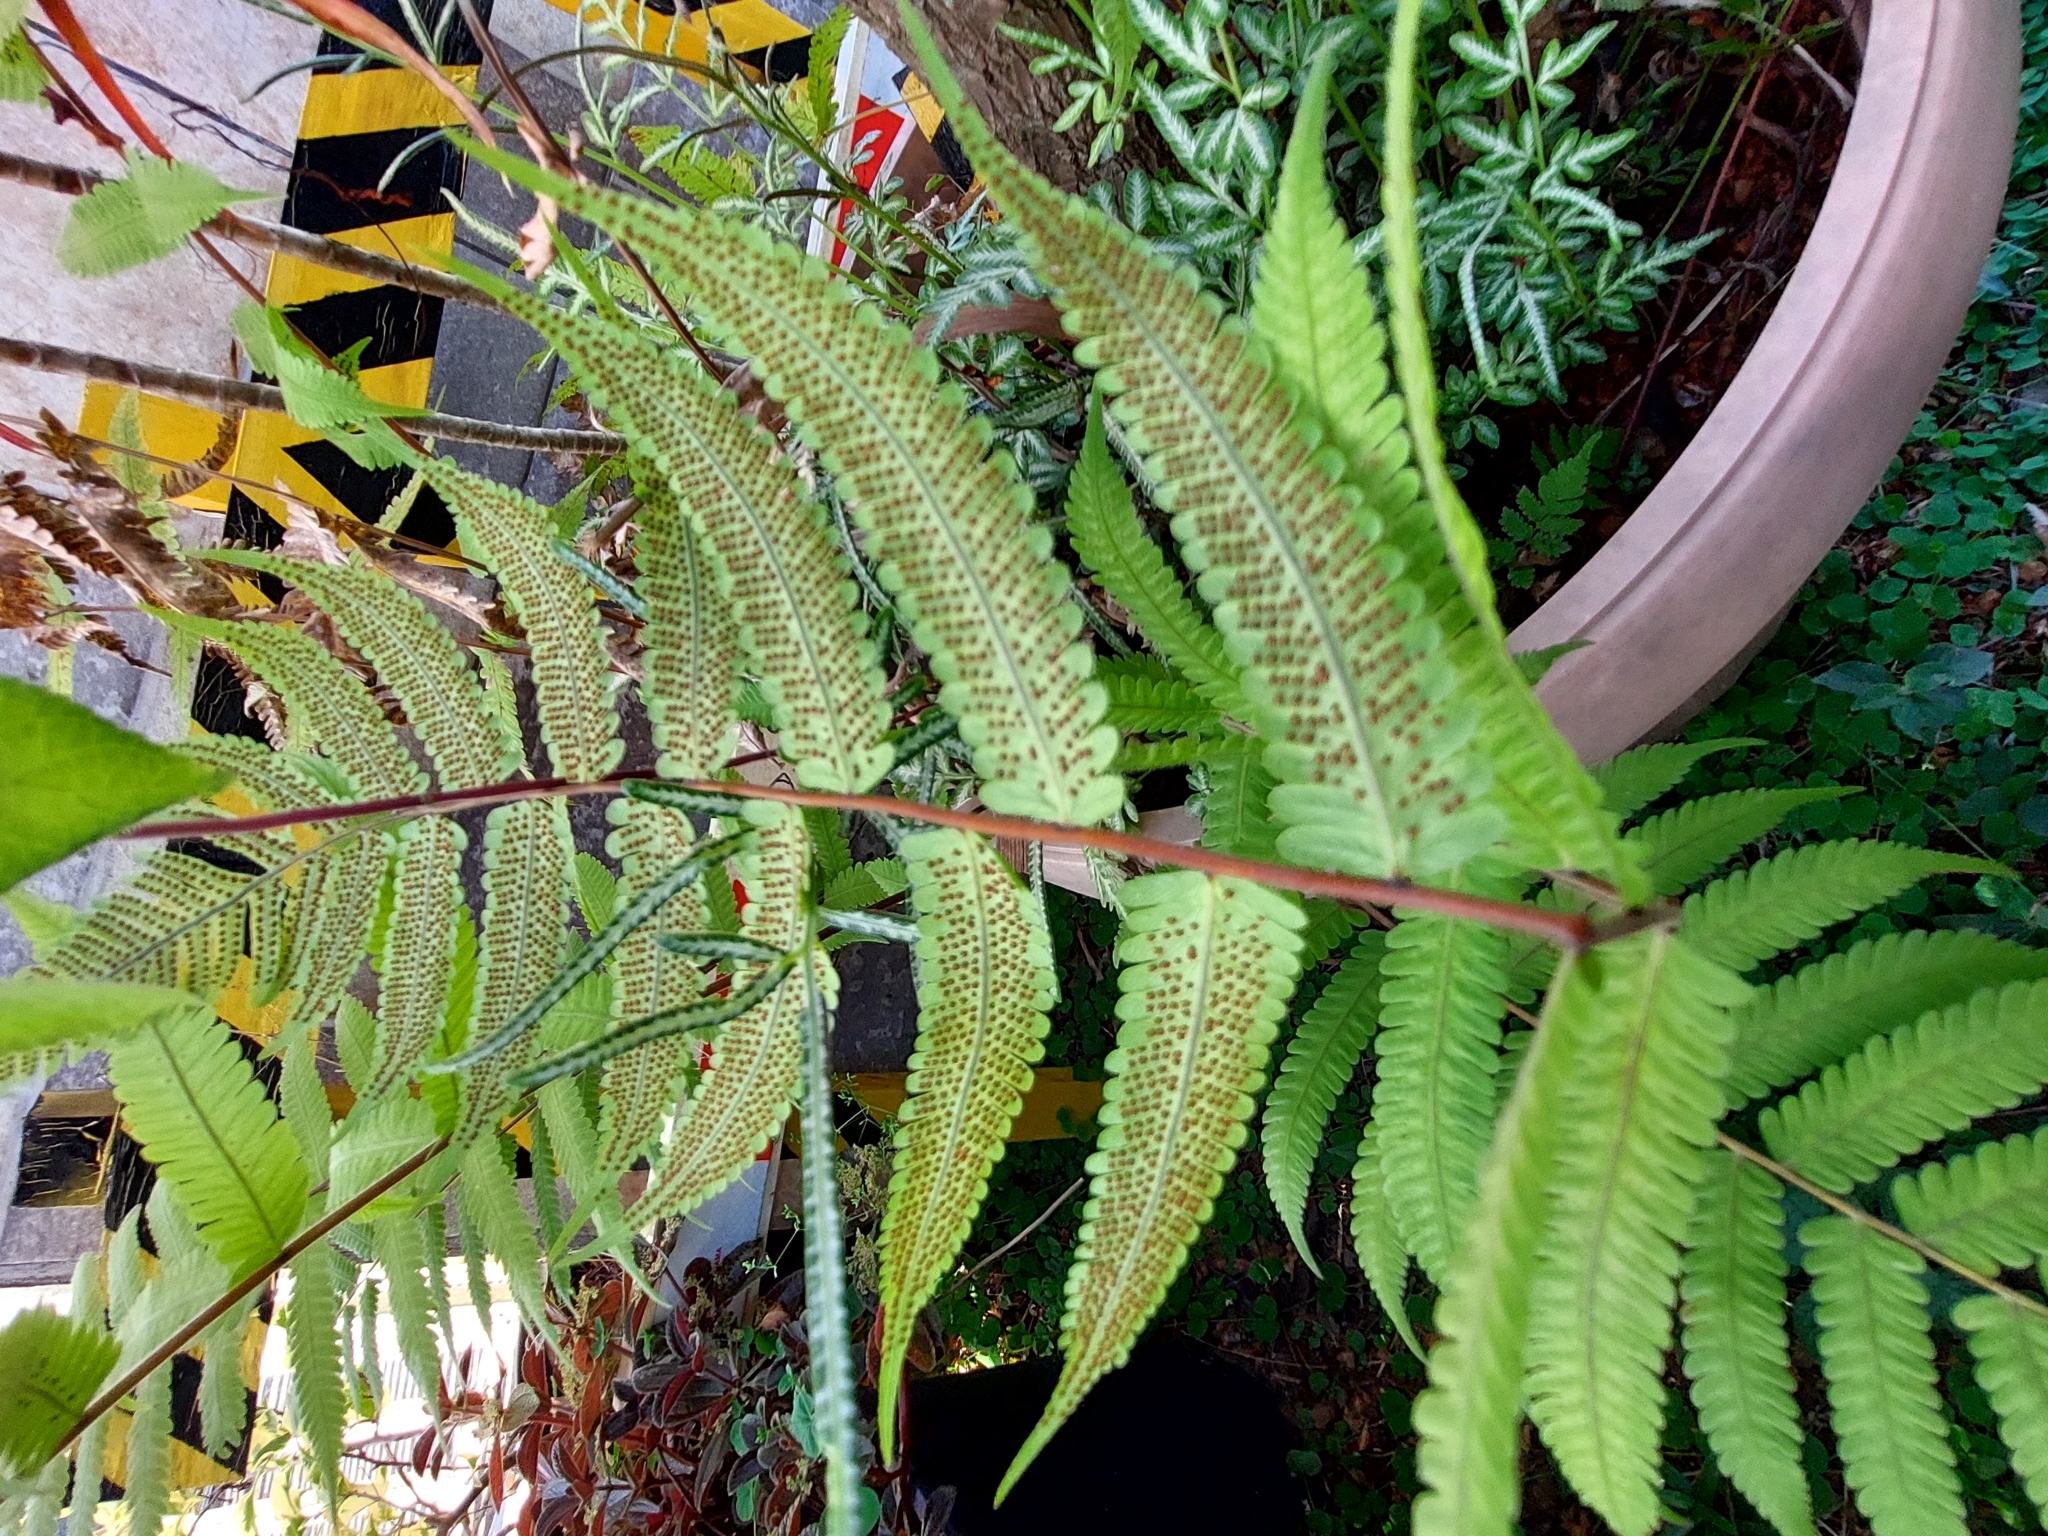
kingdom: Plantae
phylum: Tracheophyta
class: Polypodiopsida
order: Polypodiales
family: Thelypteridaceae
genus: Christella
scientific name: Christella dentata
